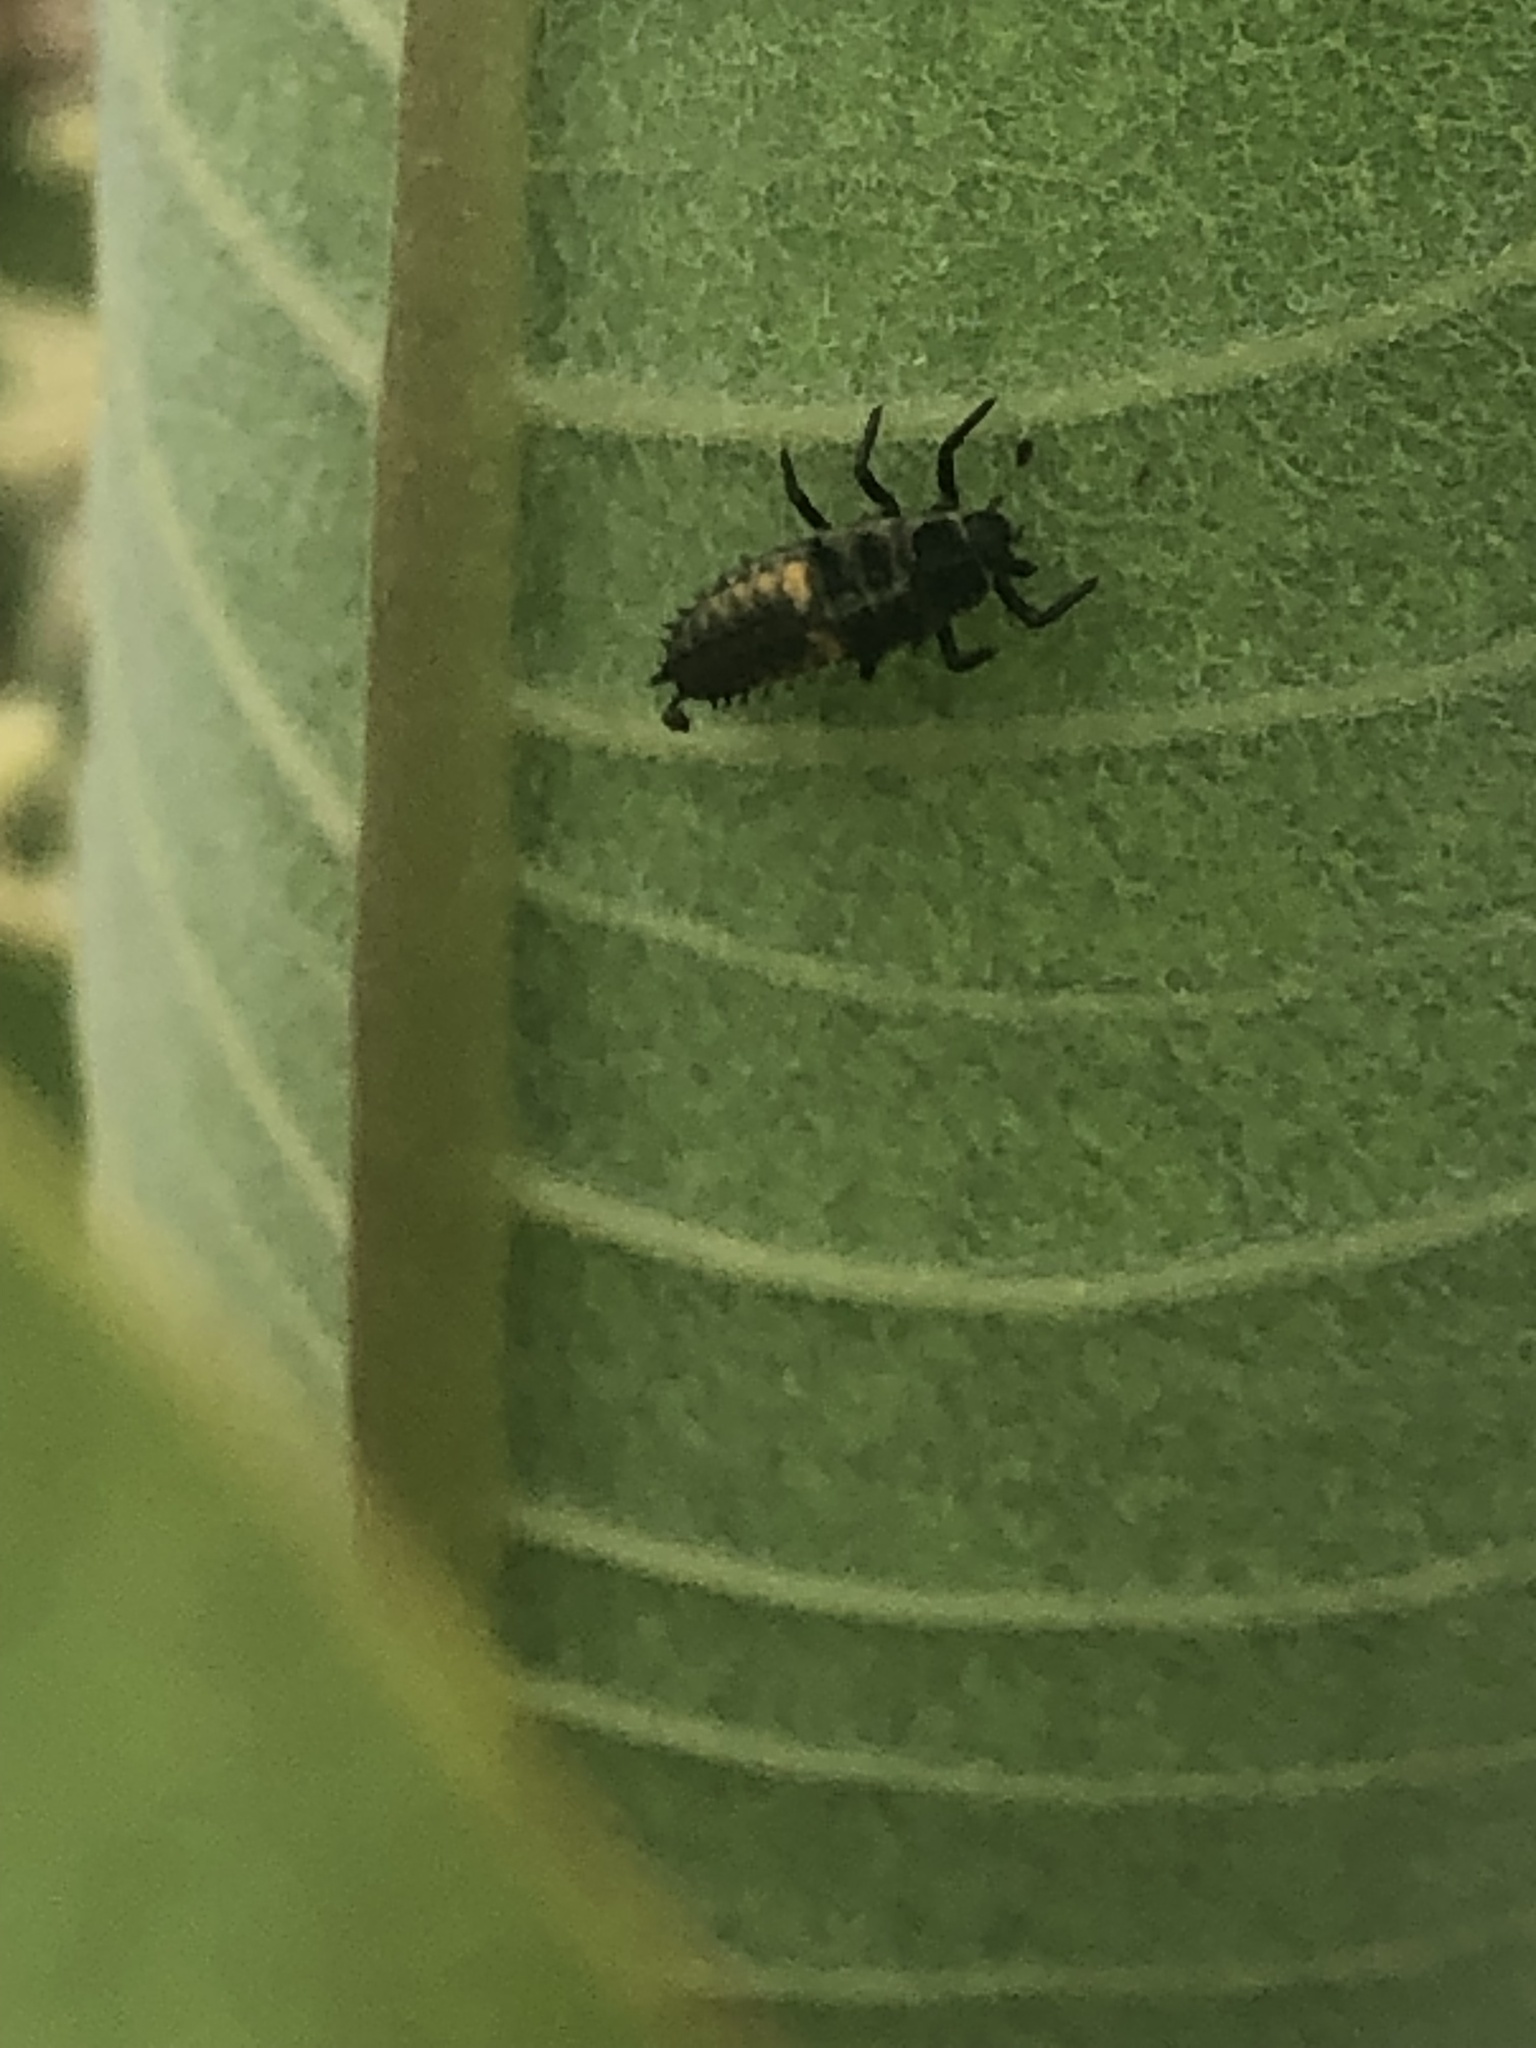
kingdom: Animalia
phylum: Arthropoda
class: Insecta
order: Coleoptera
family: Coccinellidae
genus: Harmonia
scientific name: Harmonia axyridis
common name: Harlequin ladybird
